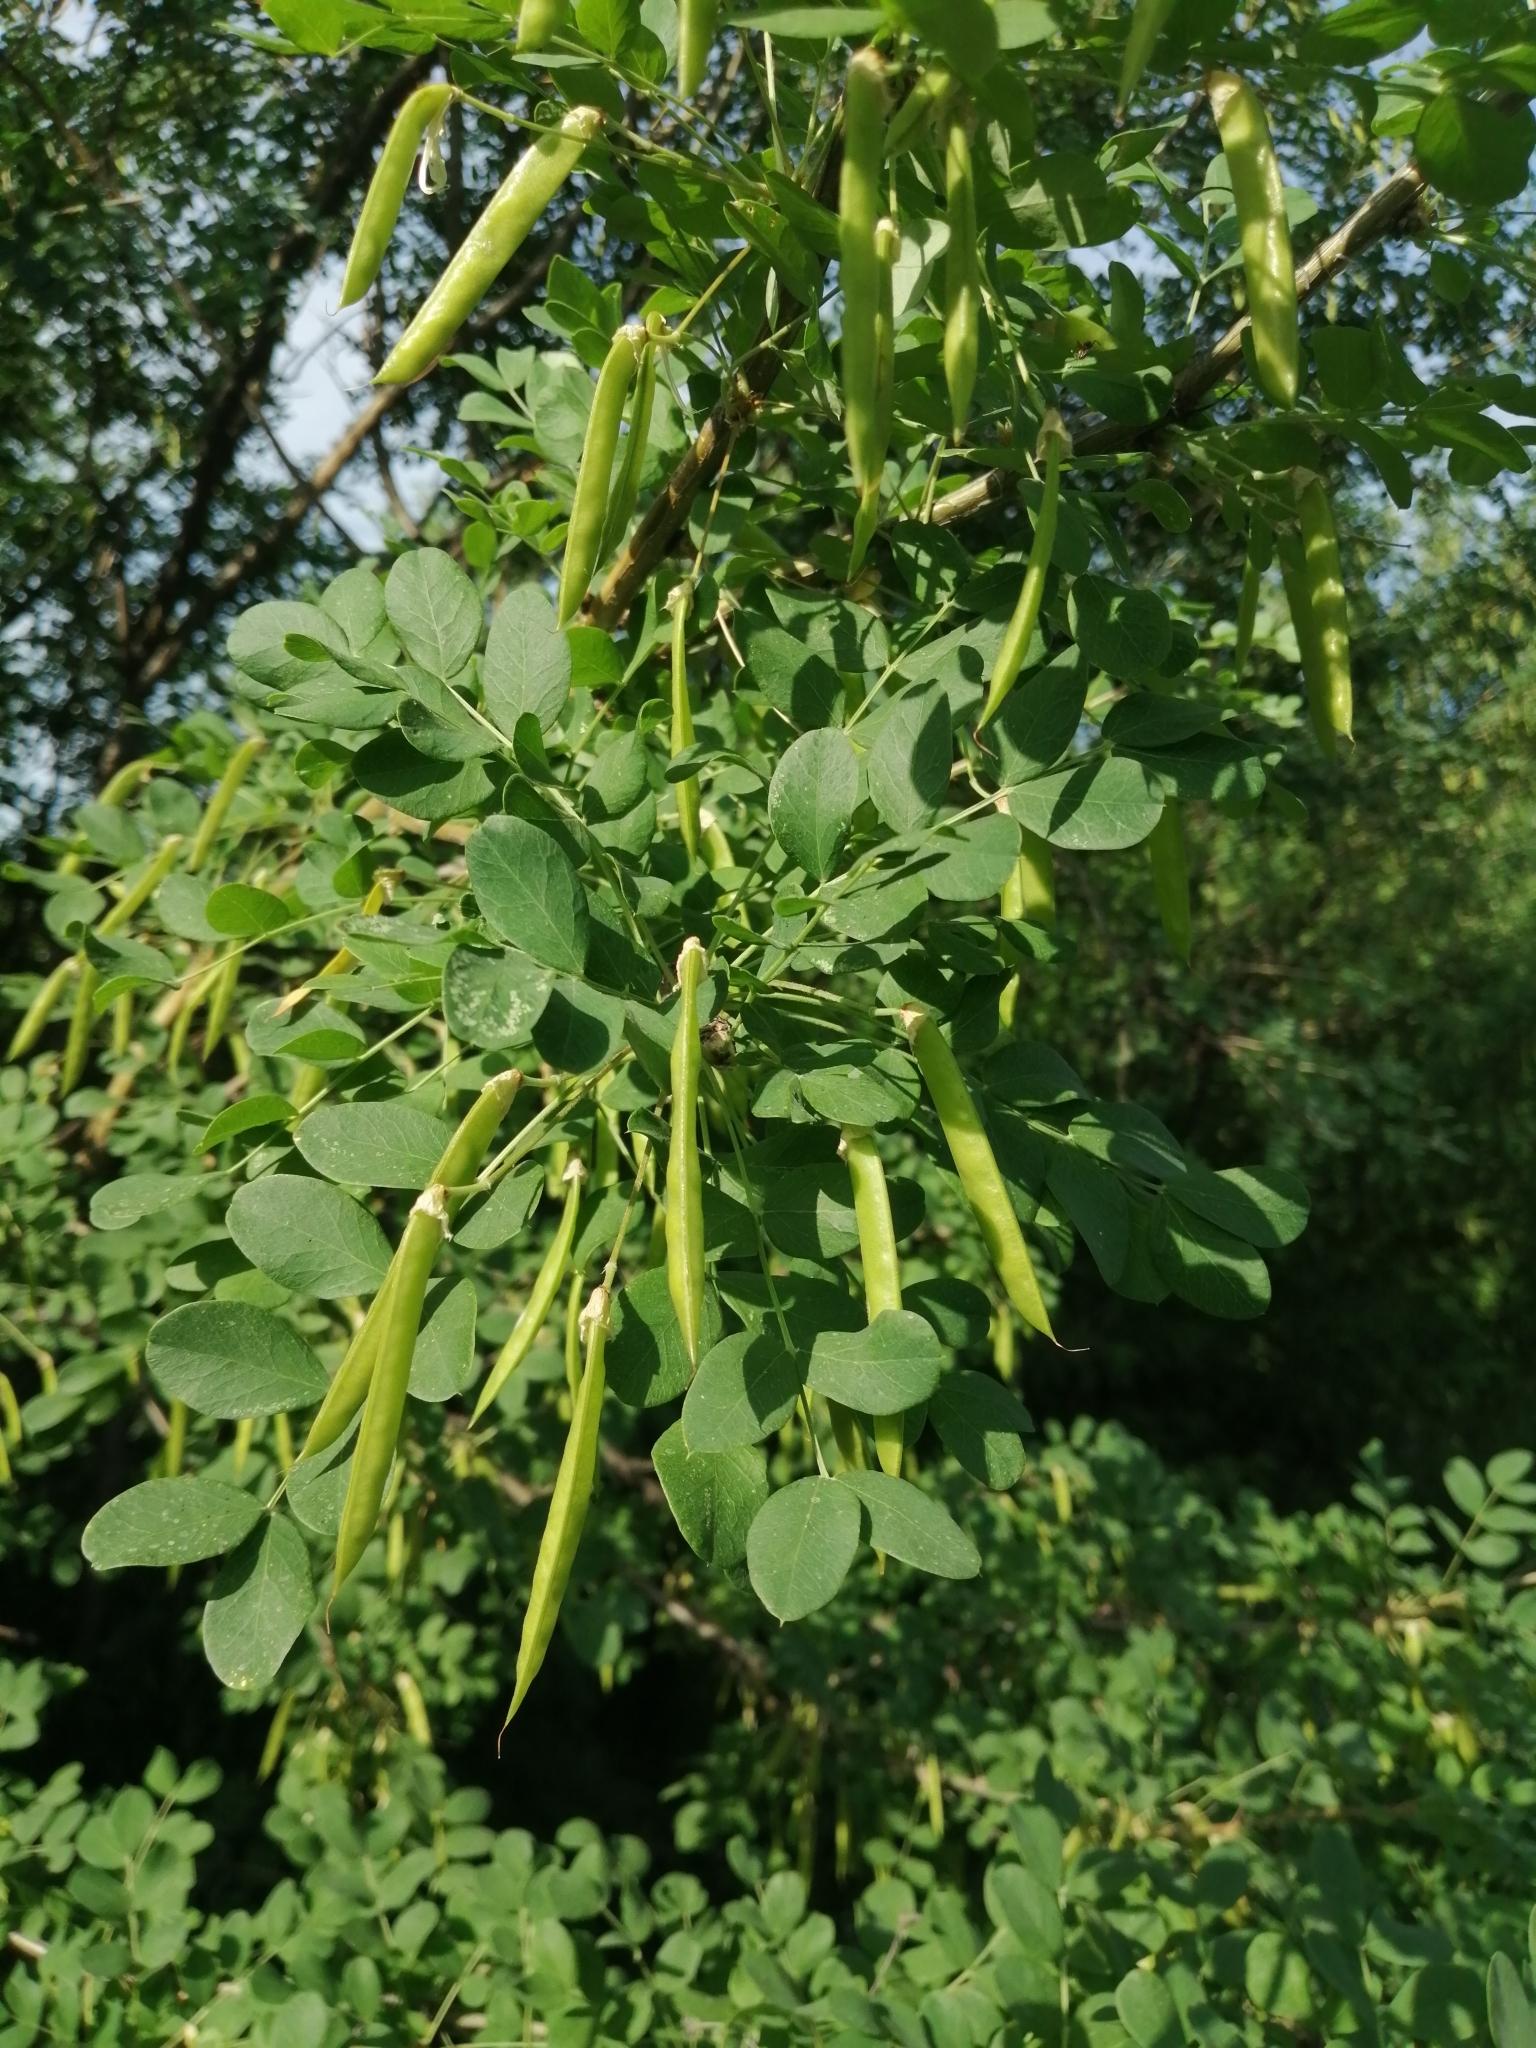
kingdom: Plantae
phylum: Tracheophyta
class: Magnoliopsida
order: Fabales
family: Fabaceae
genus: Caragana
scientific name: Caragana arborescens
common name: Siberian peashrub
